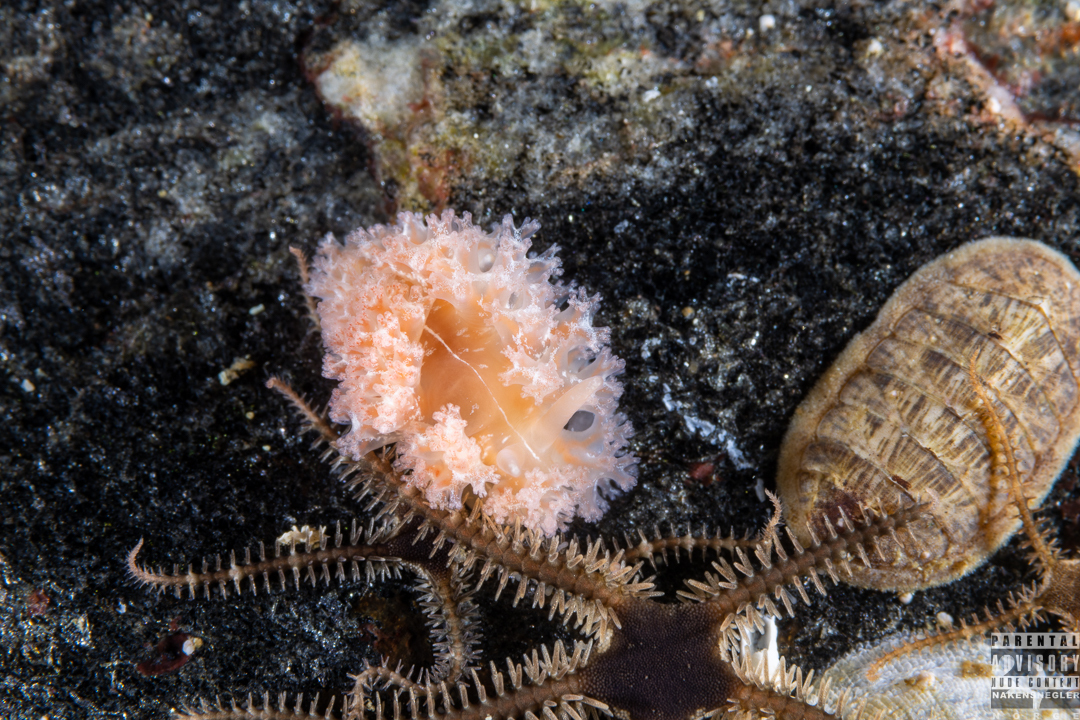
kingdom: Animalia
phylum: Mollusca
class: Gastropoda
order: Nudibranchia
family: Heroidae
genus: Hero
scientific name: Hero formosa
